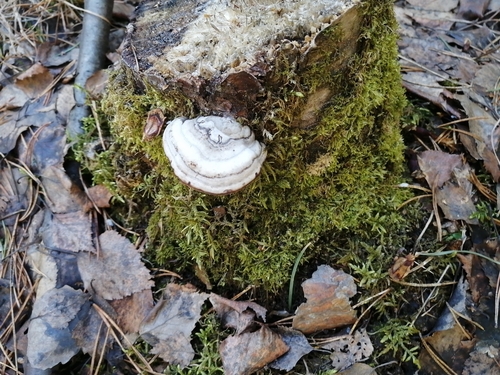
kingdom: Fungi
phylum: Basidiomycota
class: Agaricomycetes
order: Polyporales
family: Polyporaceae
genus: Fomes
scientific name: Fomes fomentarius
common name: Hoof fungus
